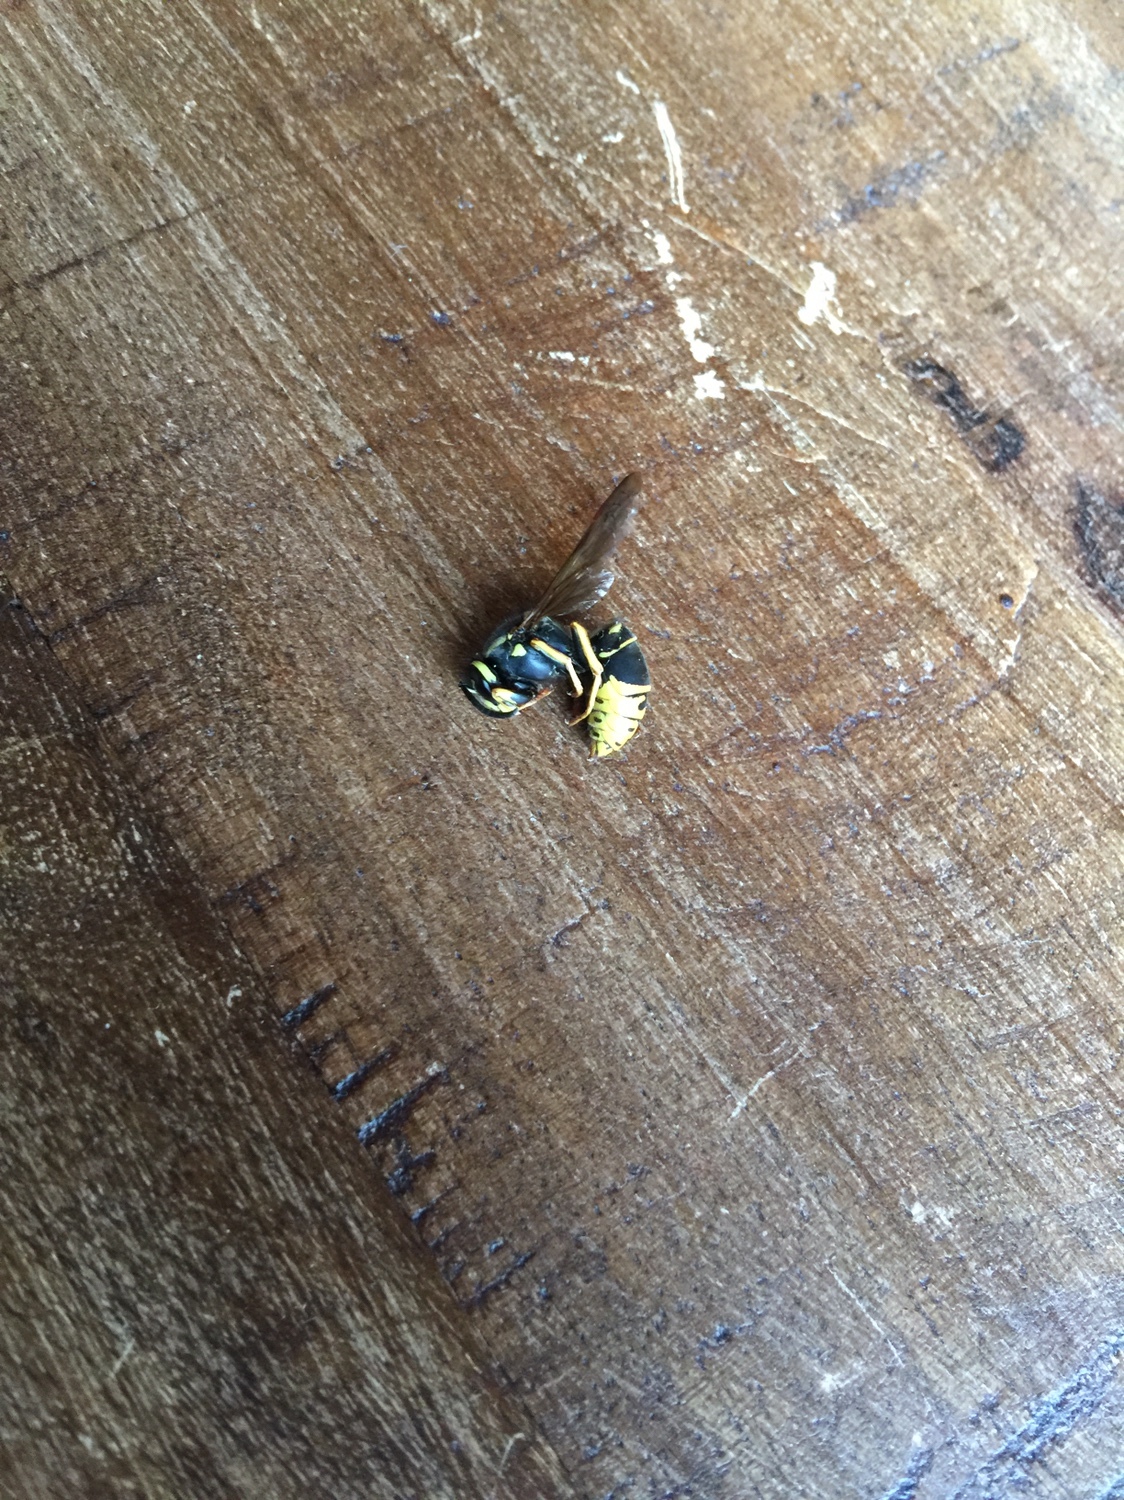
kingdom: Animalia
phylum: Arthropoda
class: Insecta
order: Hymenoptera
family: Vespidae
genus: Vespula
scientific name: Vespula vidua
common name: Widow yellowjacket
